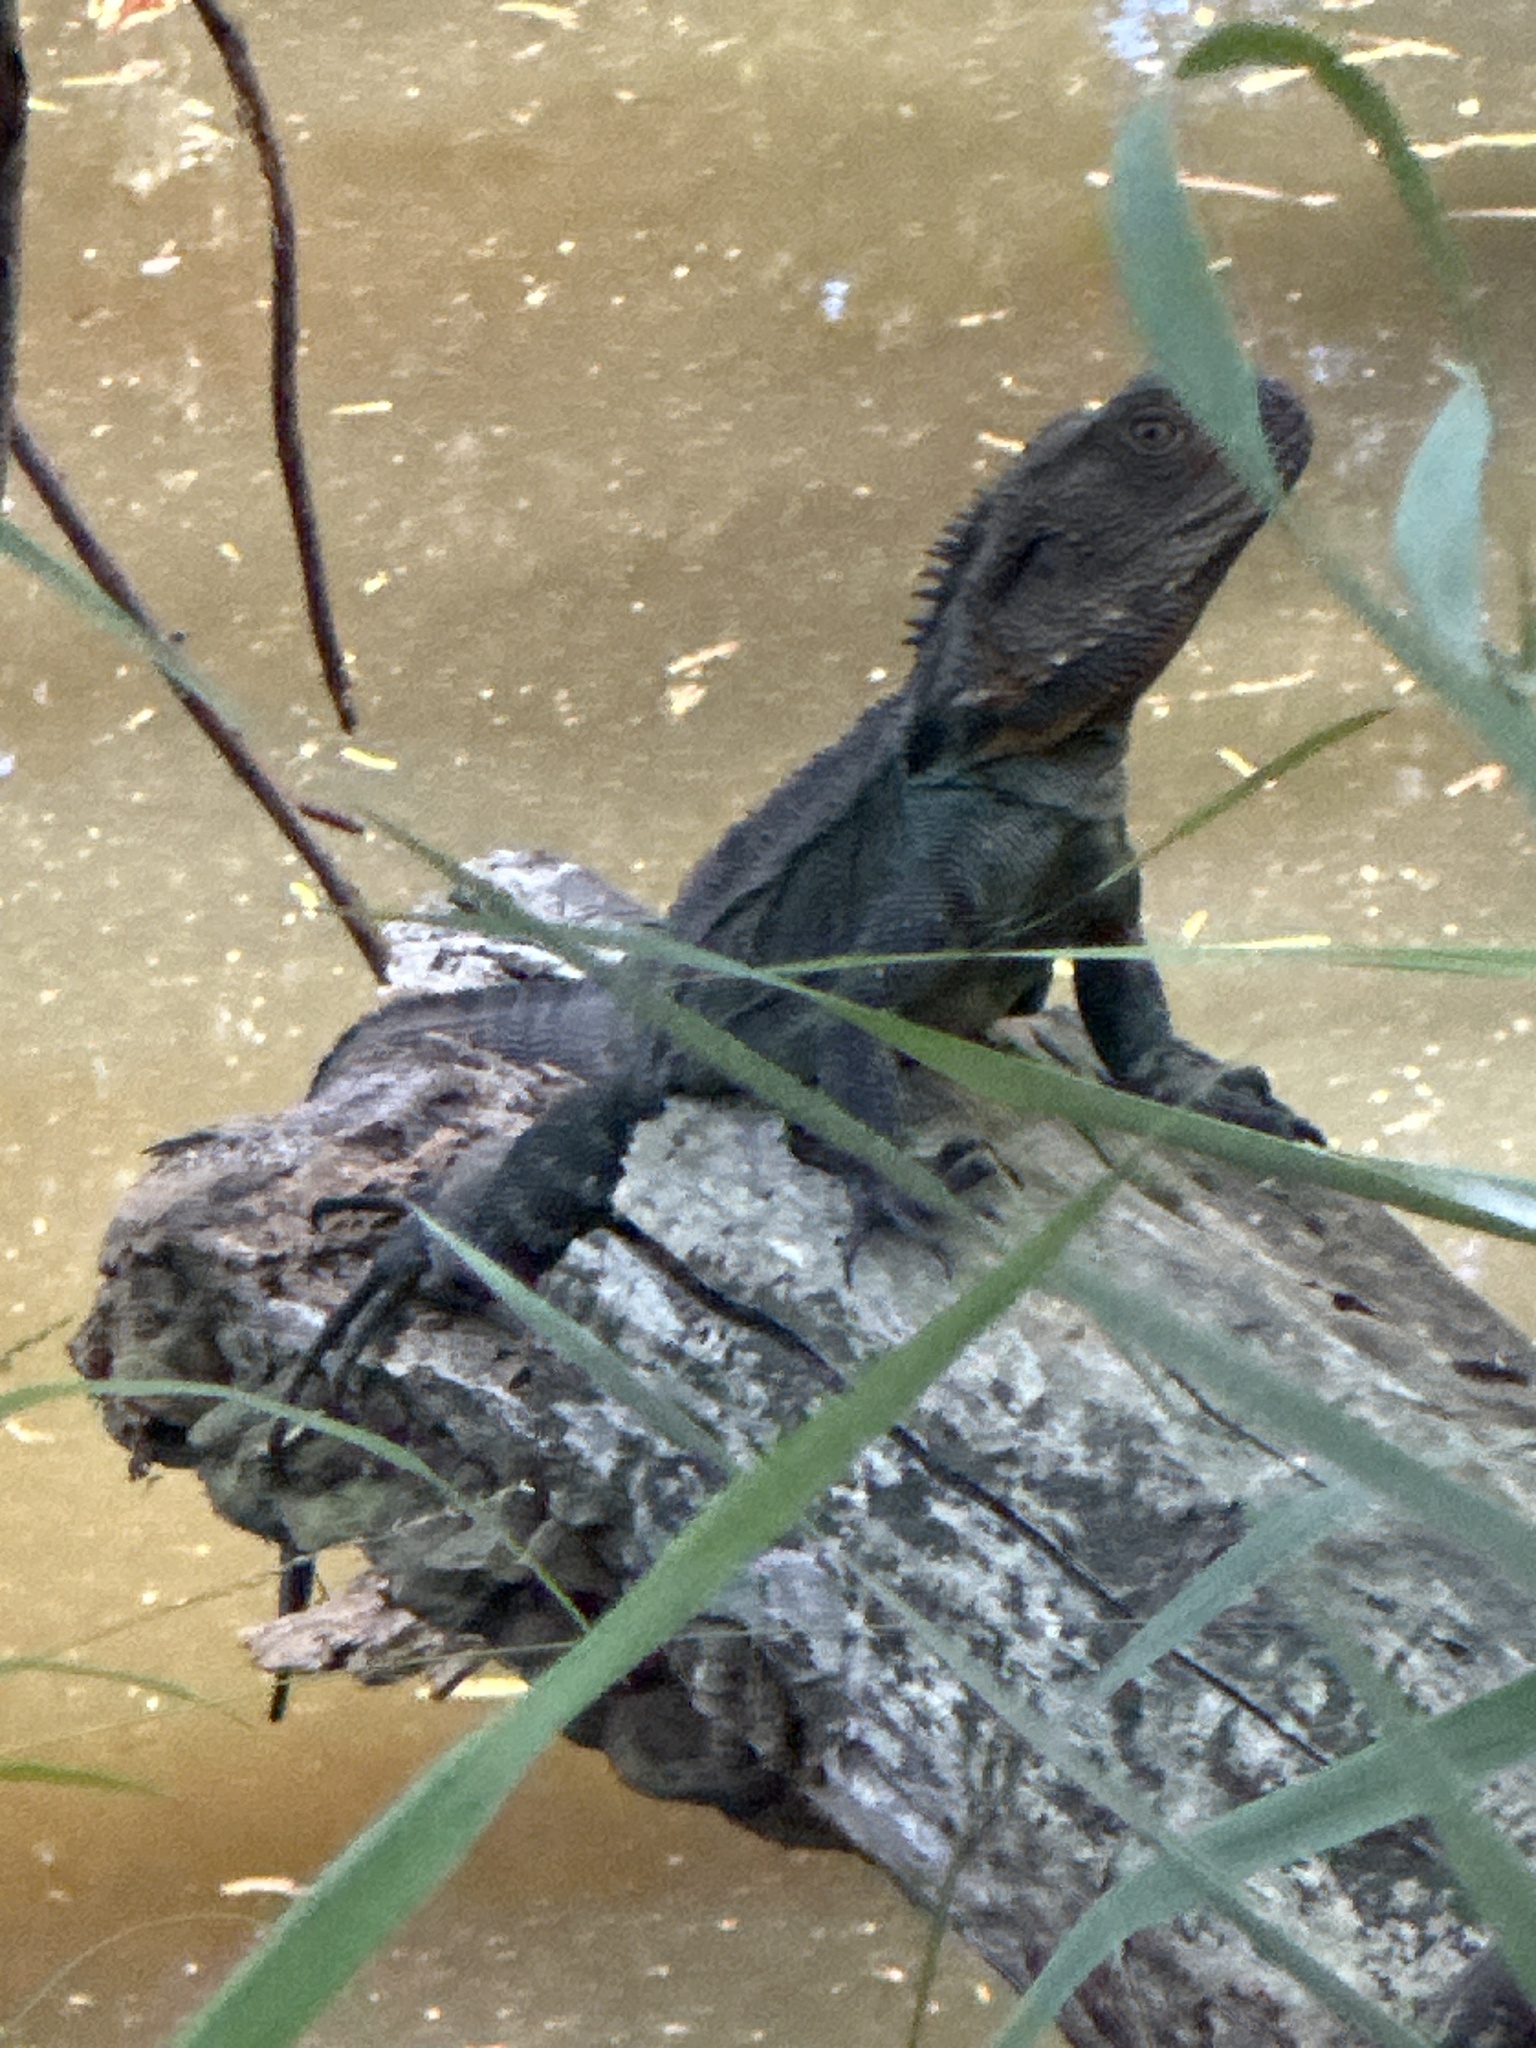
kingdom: Animalia
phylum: Chordata
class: Squamata
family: Agamidae
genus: Intellagama
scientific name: Intellagama lesueurii
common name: Eastern water dragon
